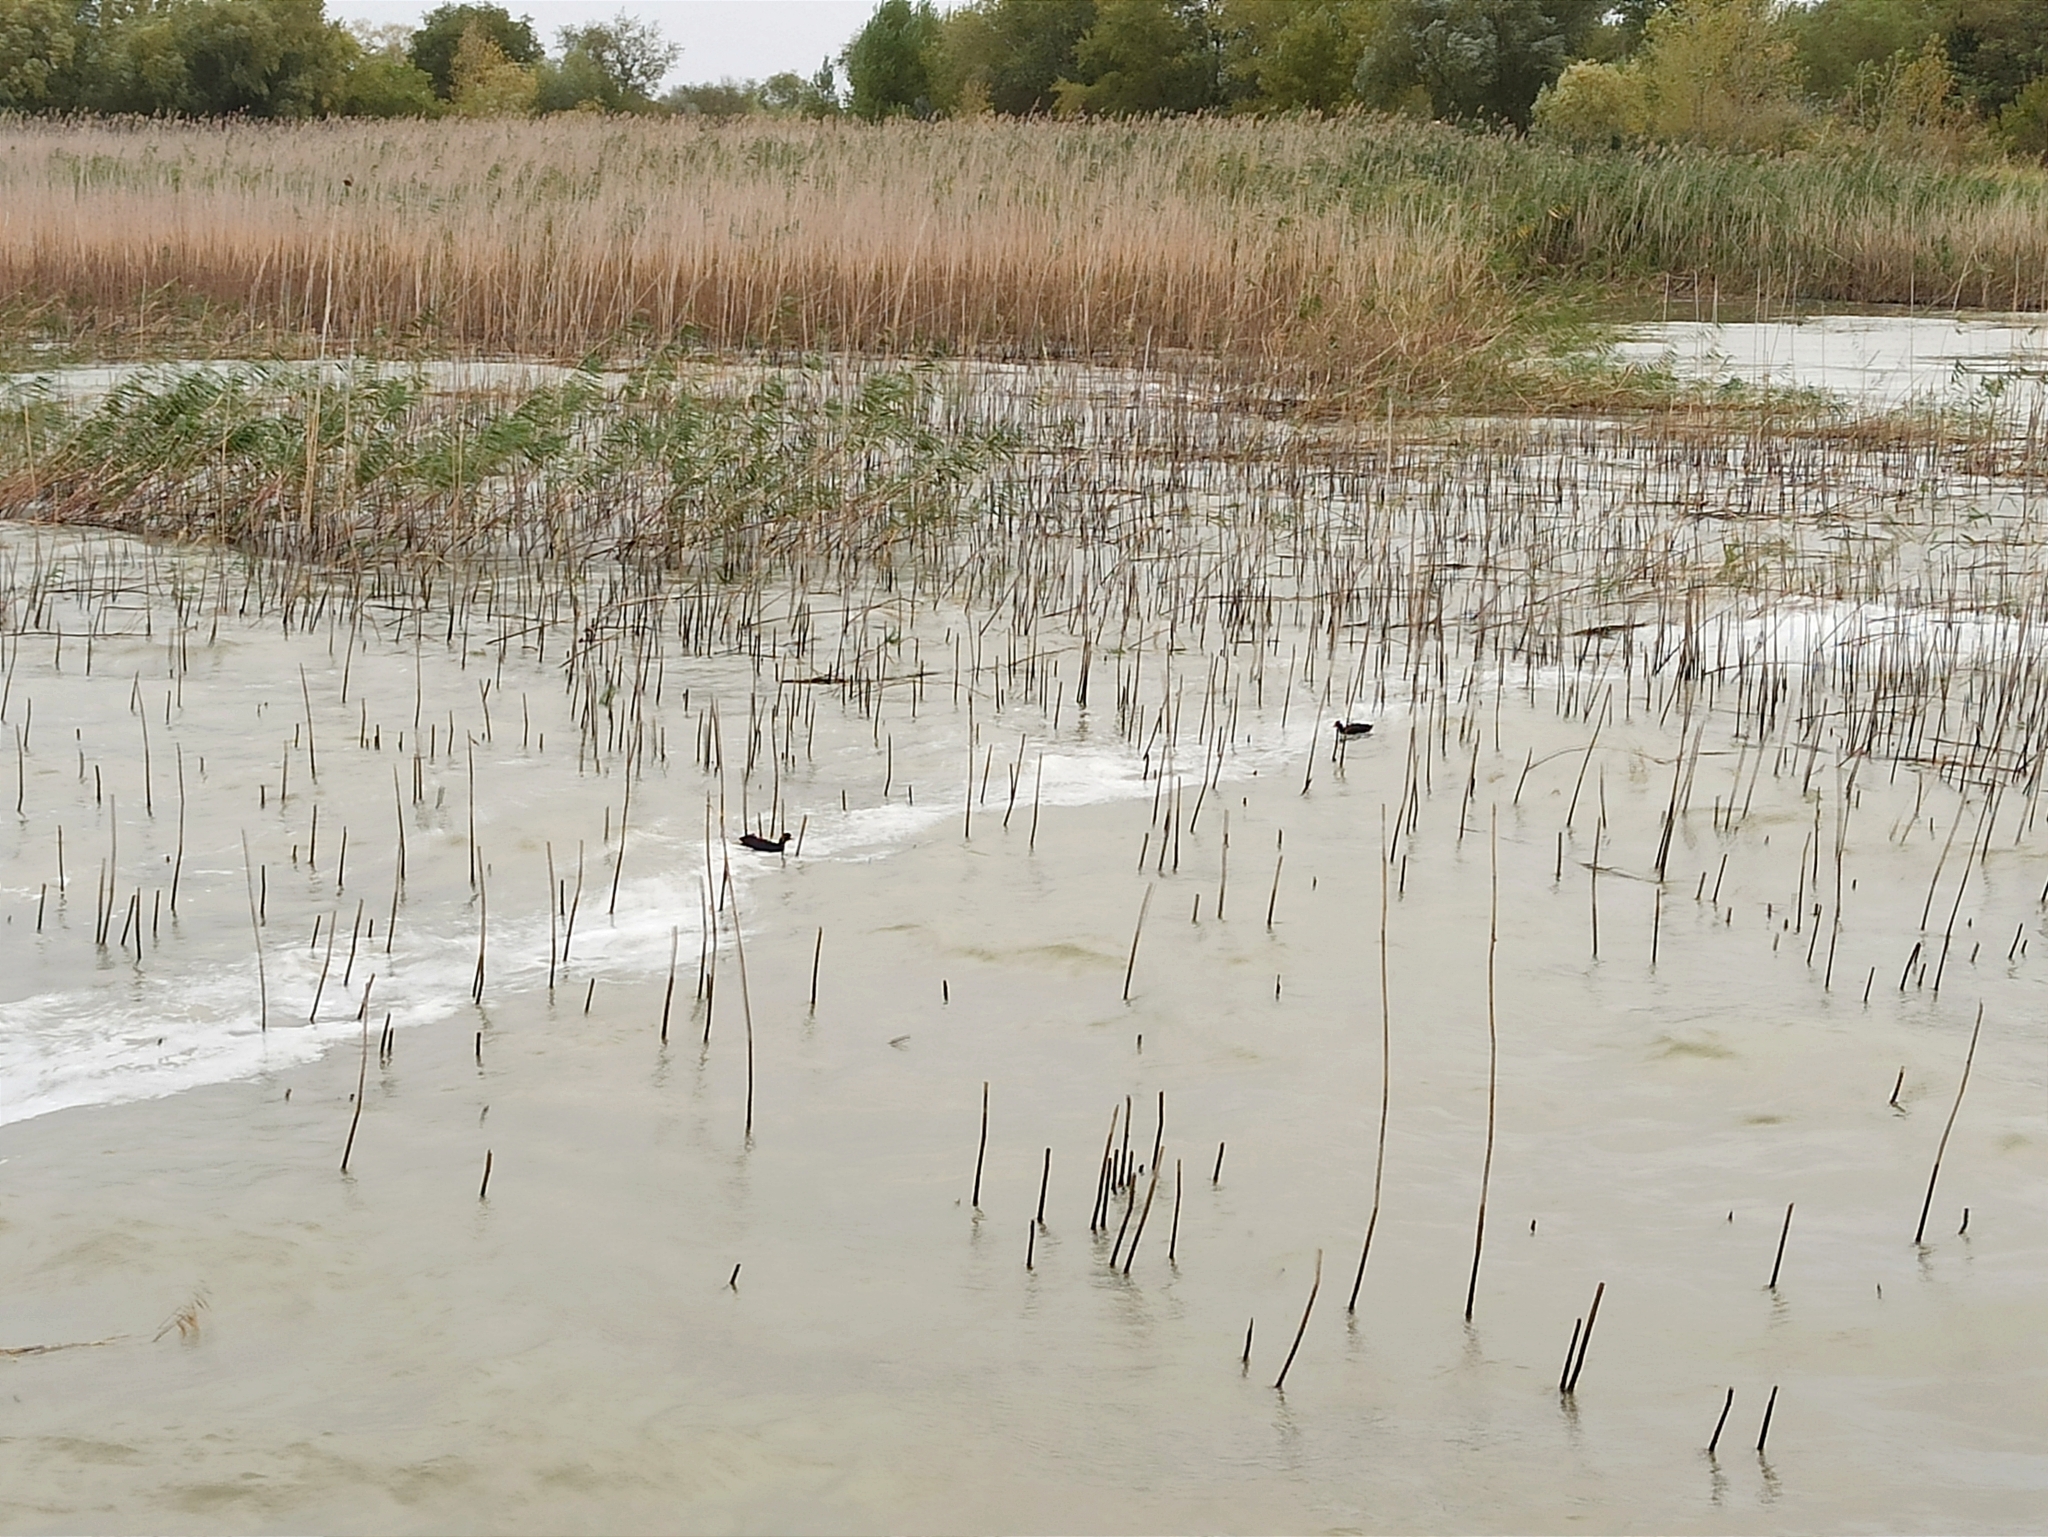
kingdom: Animalia
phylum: Chordata
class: Aves
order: Gruiformes
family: Rallidae
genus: Fulica
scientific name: Fulica atra
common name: Eurasian coot
